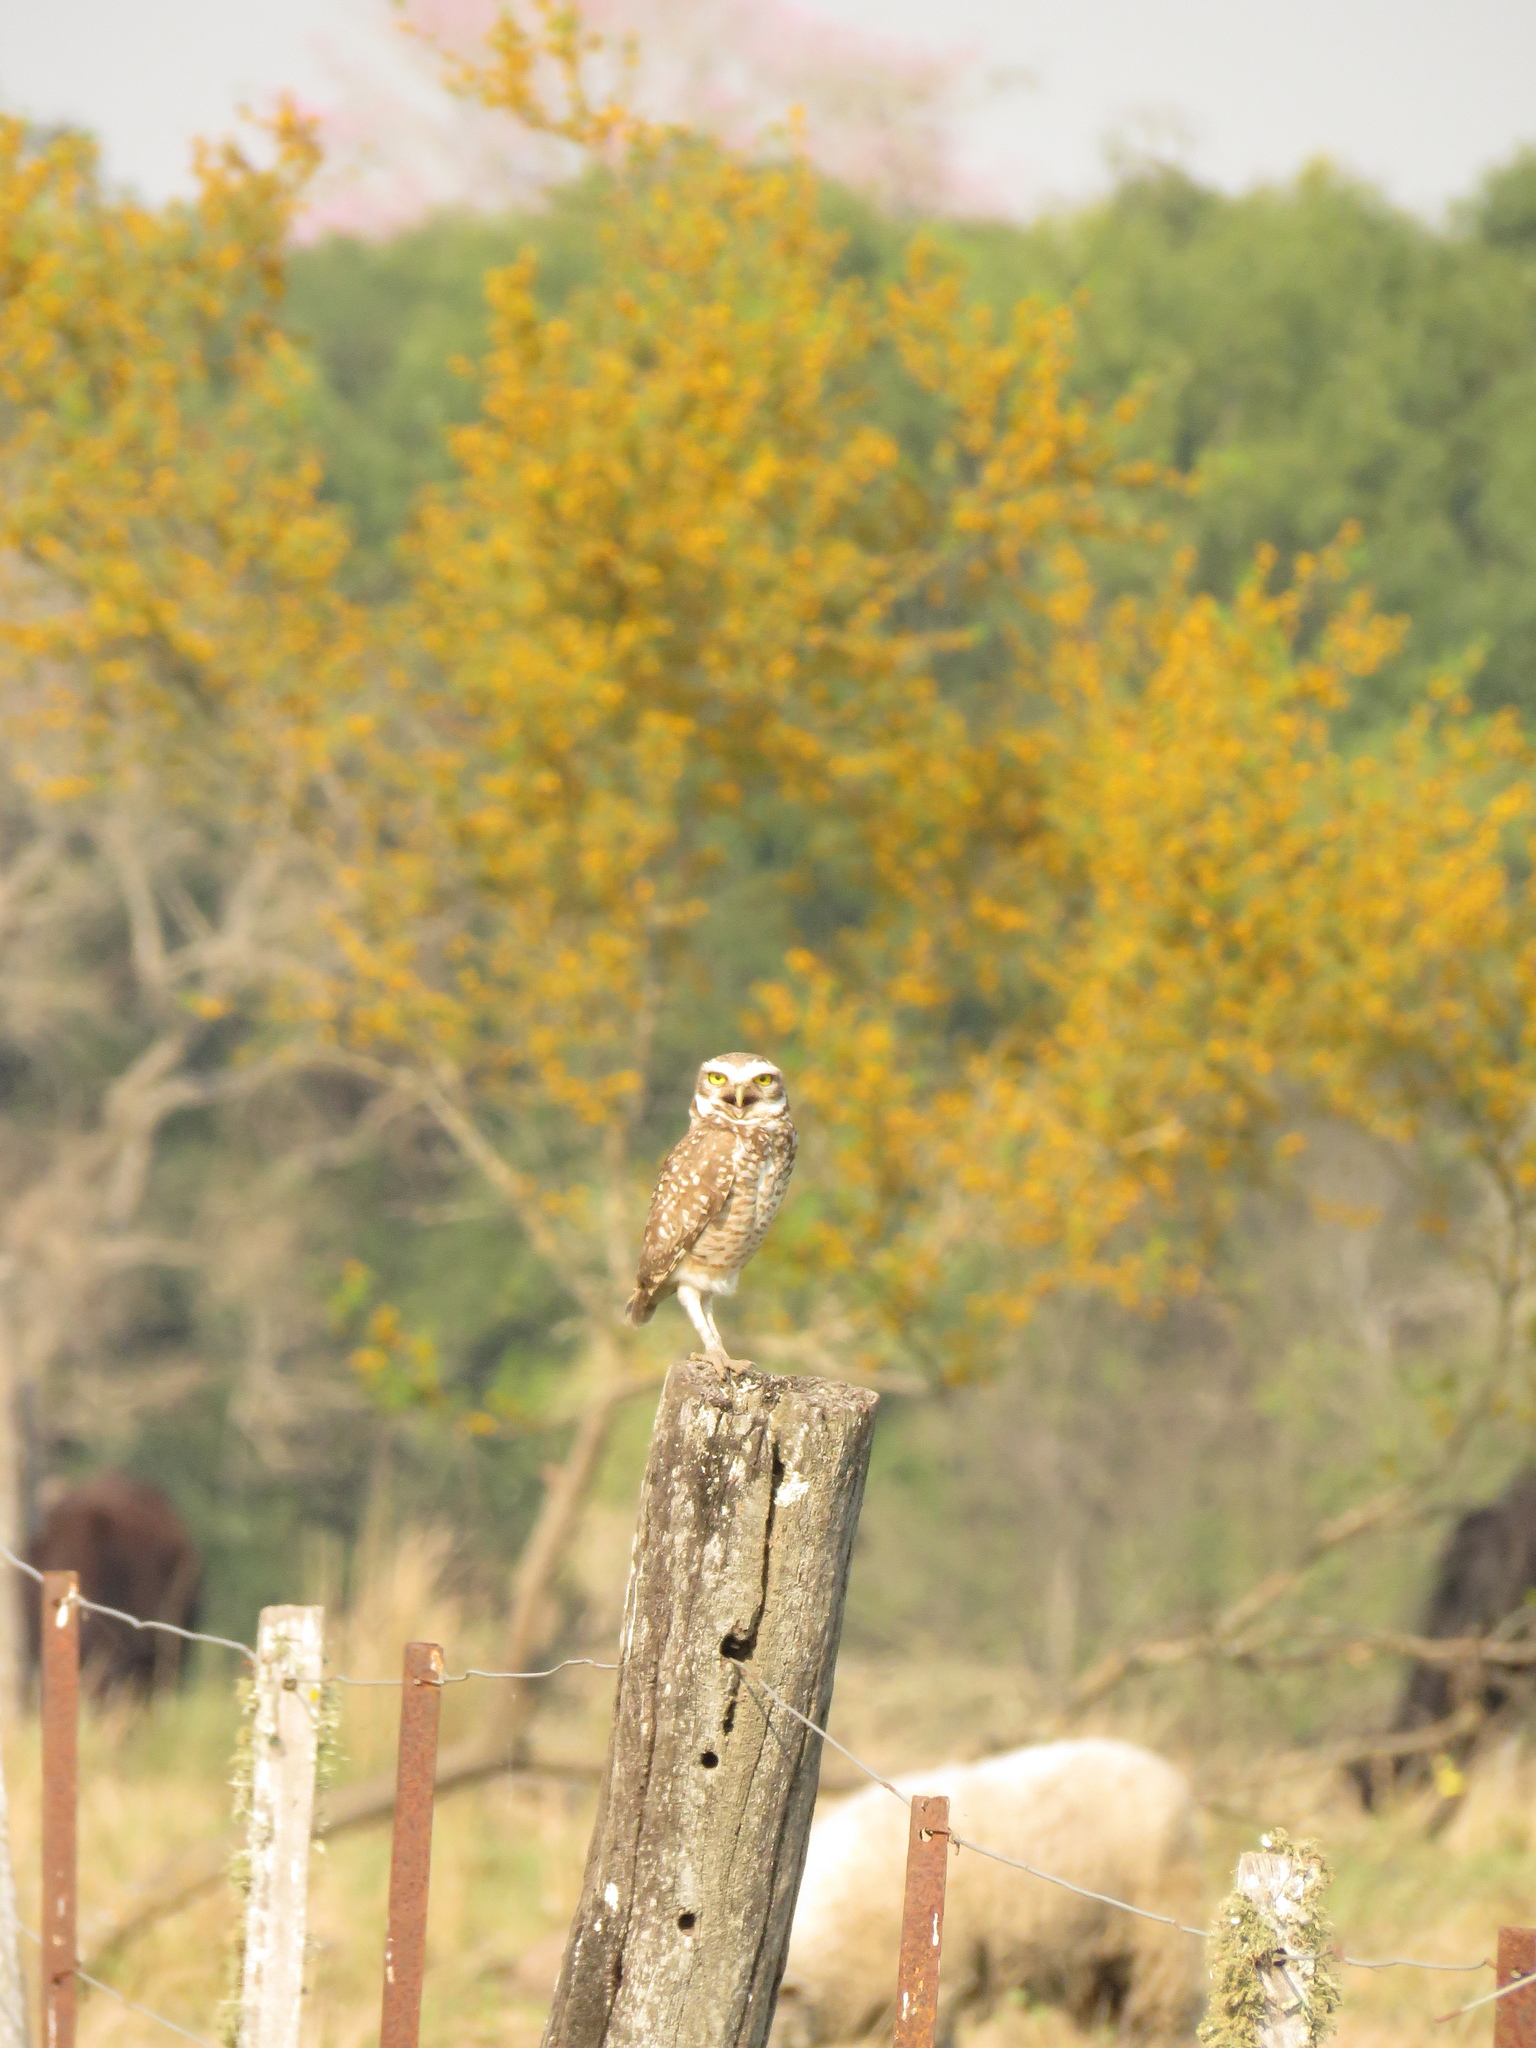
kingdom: Animalia
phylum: Chordata
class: Aves
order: Strigiformes
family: Strigidae
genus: Athene
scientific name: Athene cunicularia
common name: Burrowing owl
